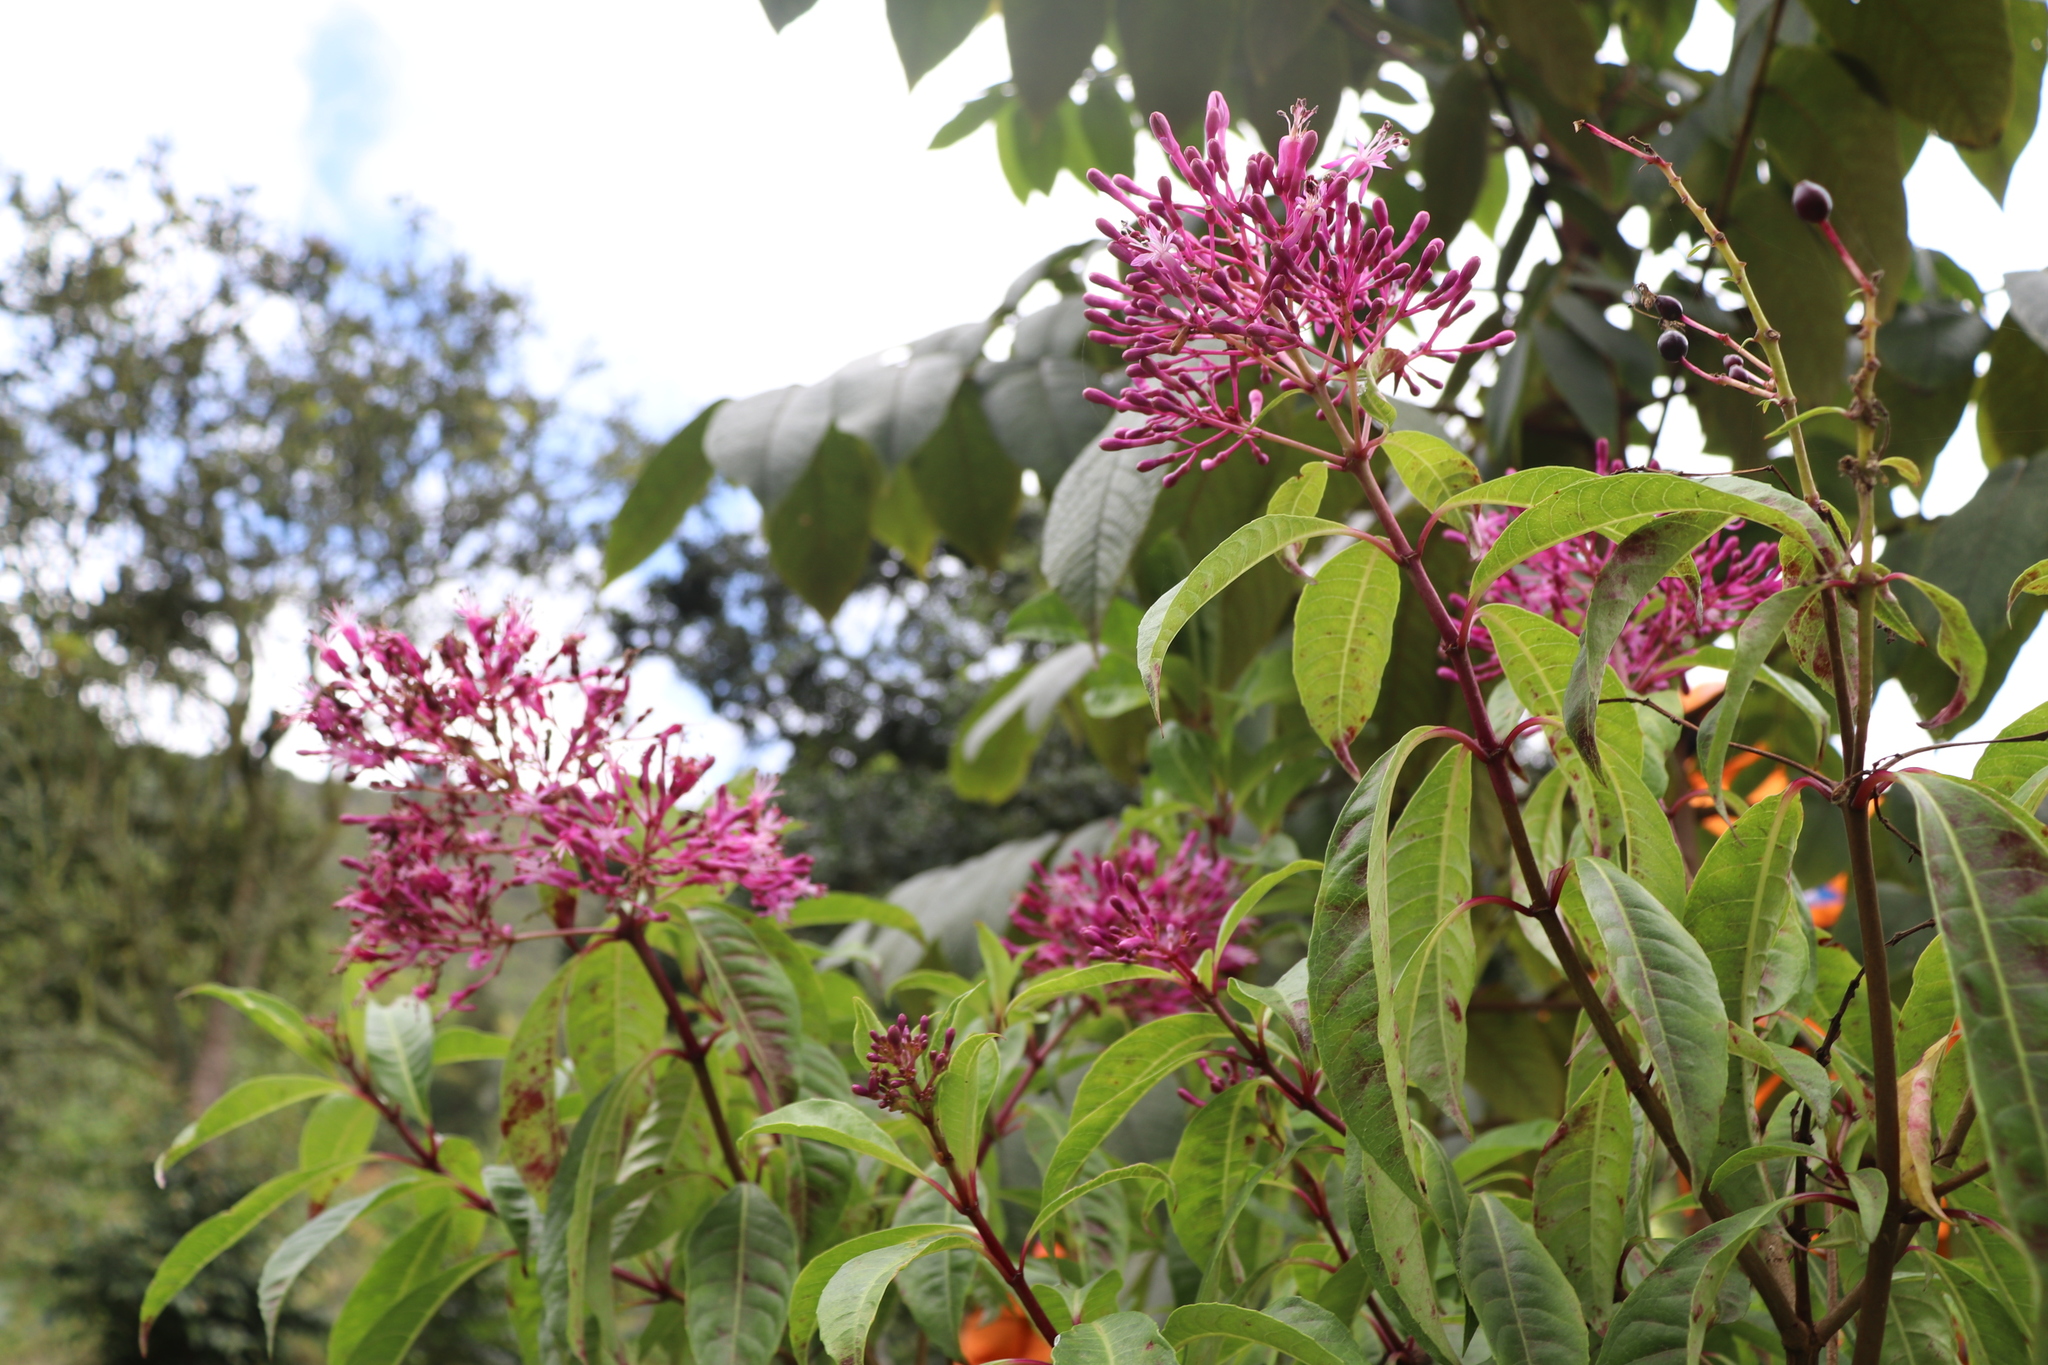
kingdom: Plantae
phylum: Tracheophyta
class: Magnoliopsida
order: Myrtales
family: Onagraceae
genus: Fuchsia
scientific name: Fuchsia paniculata
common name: Shrubby fuchsia
